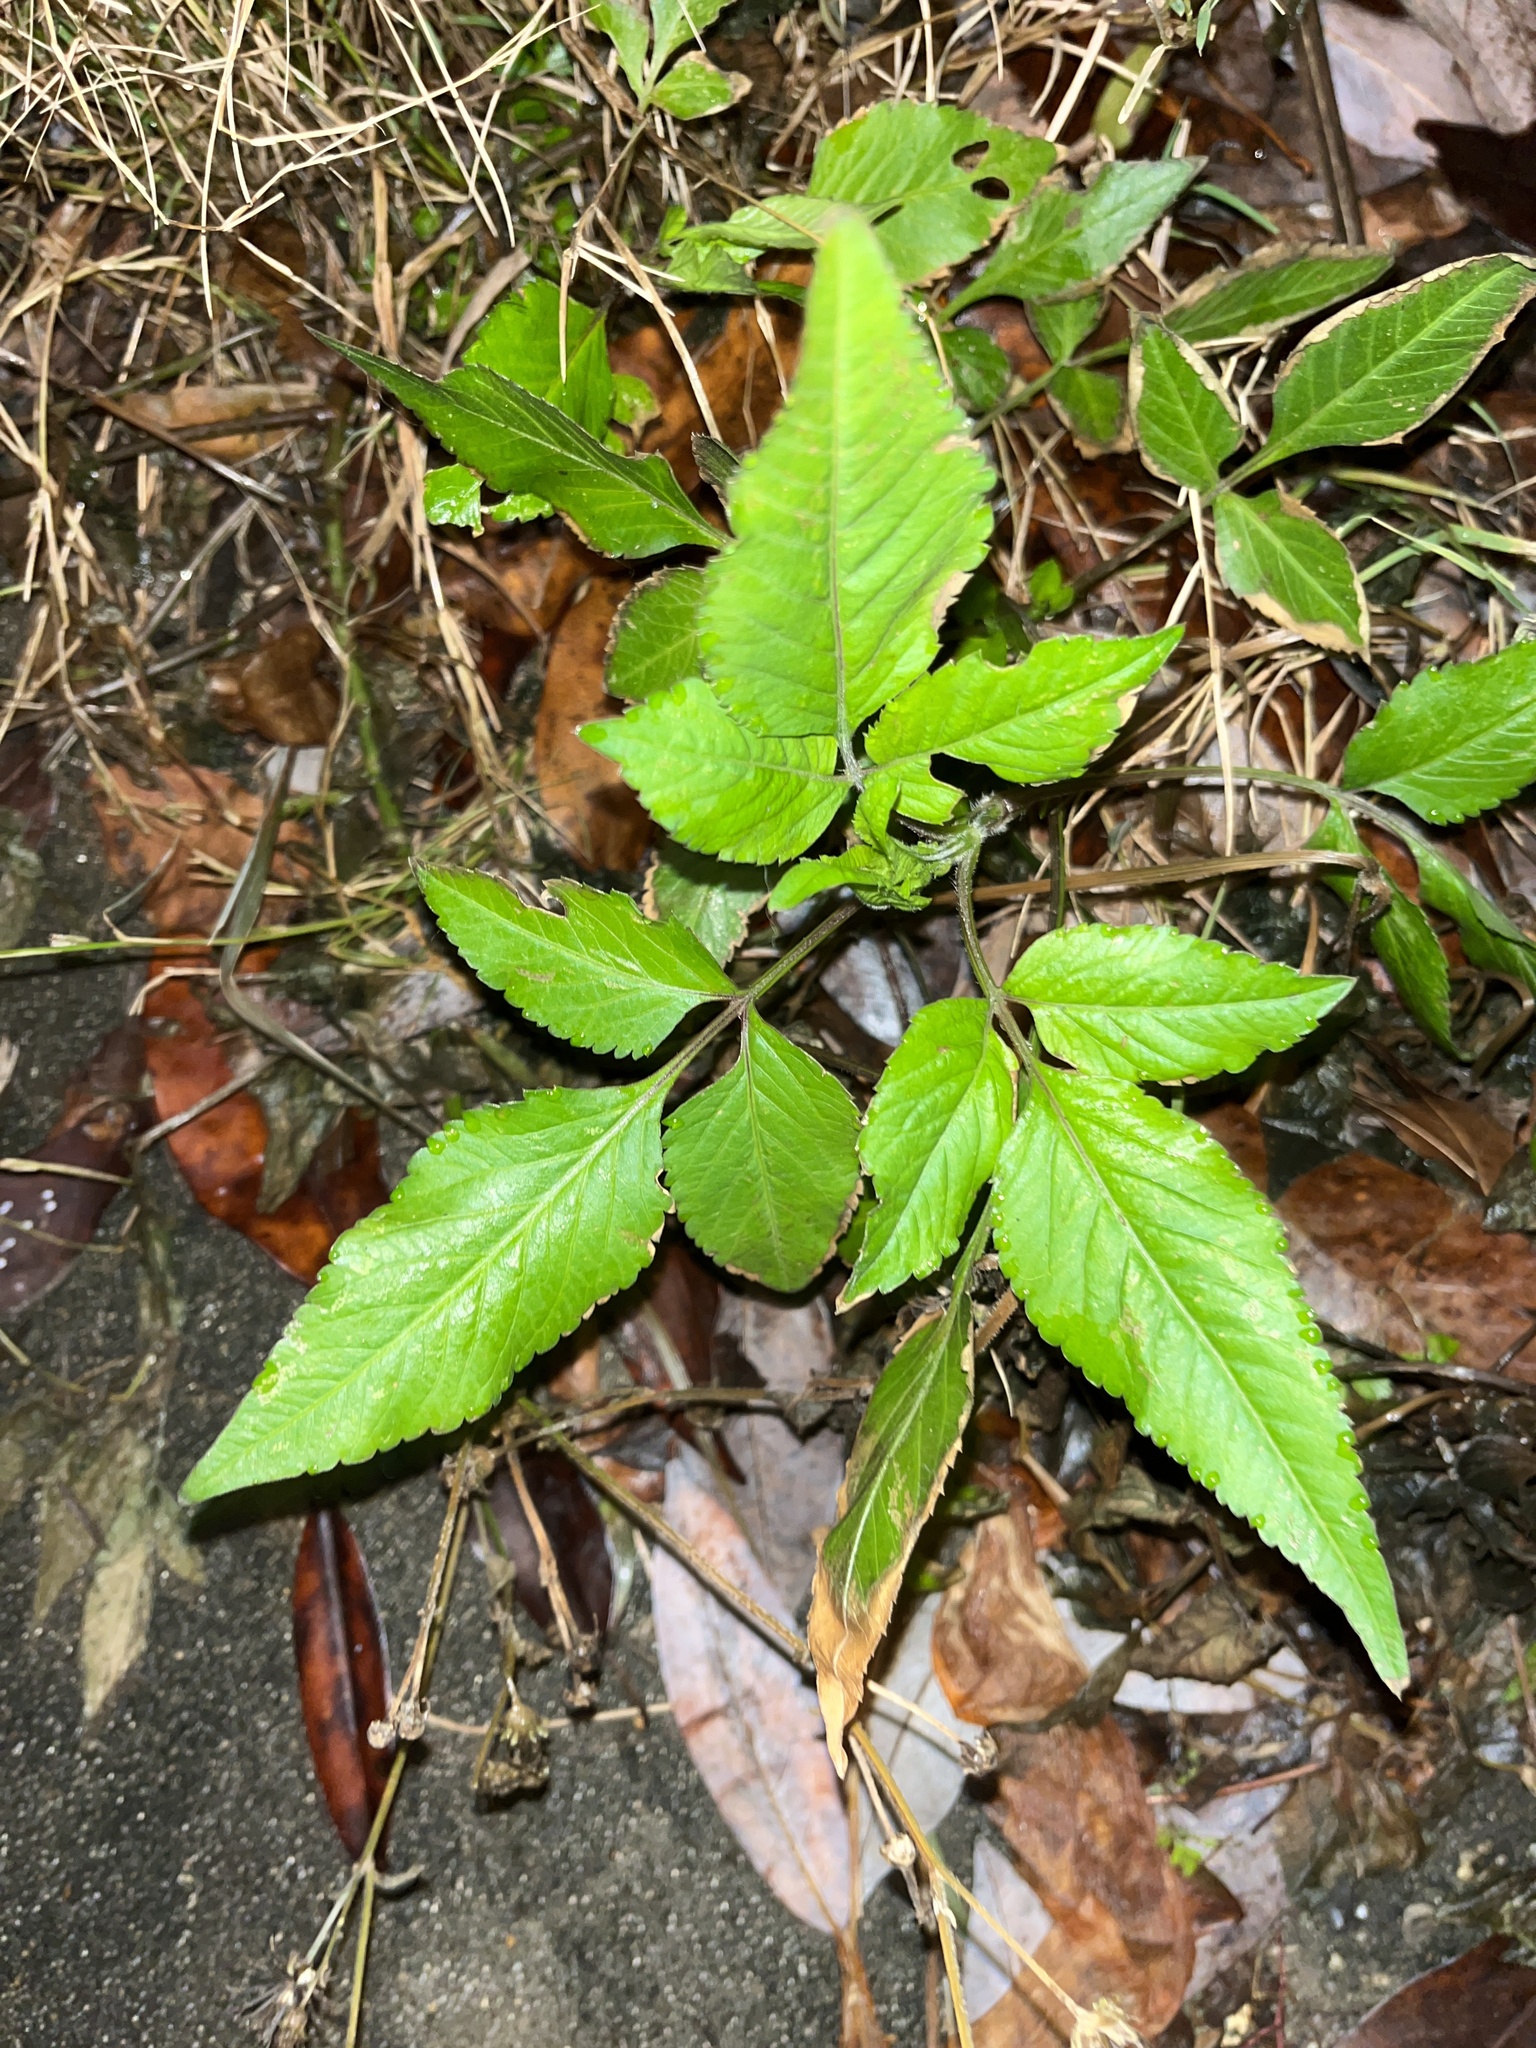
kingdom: Plantae
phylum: Tracheophyta
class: Magnoliopsida
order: Asterales
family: Asteraceae
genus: Bidens
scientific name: Bidens alba
